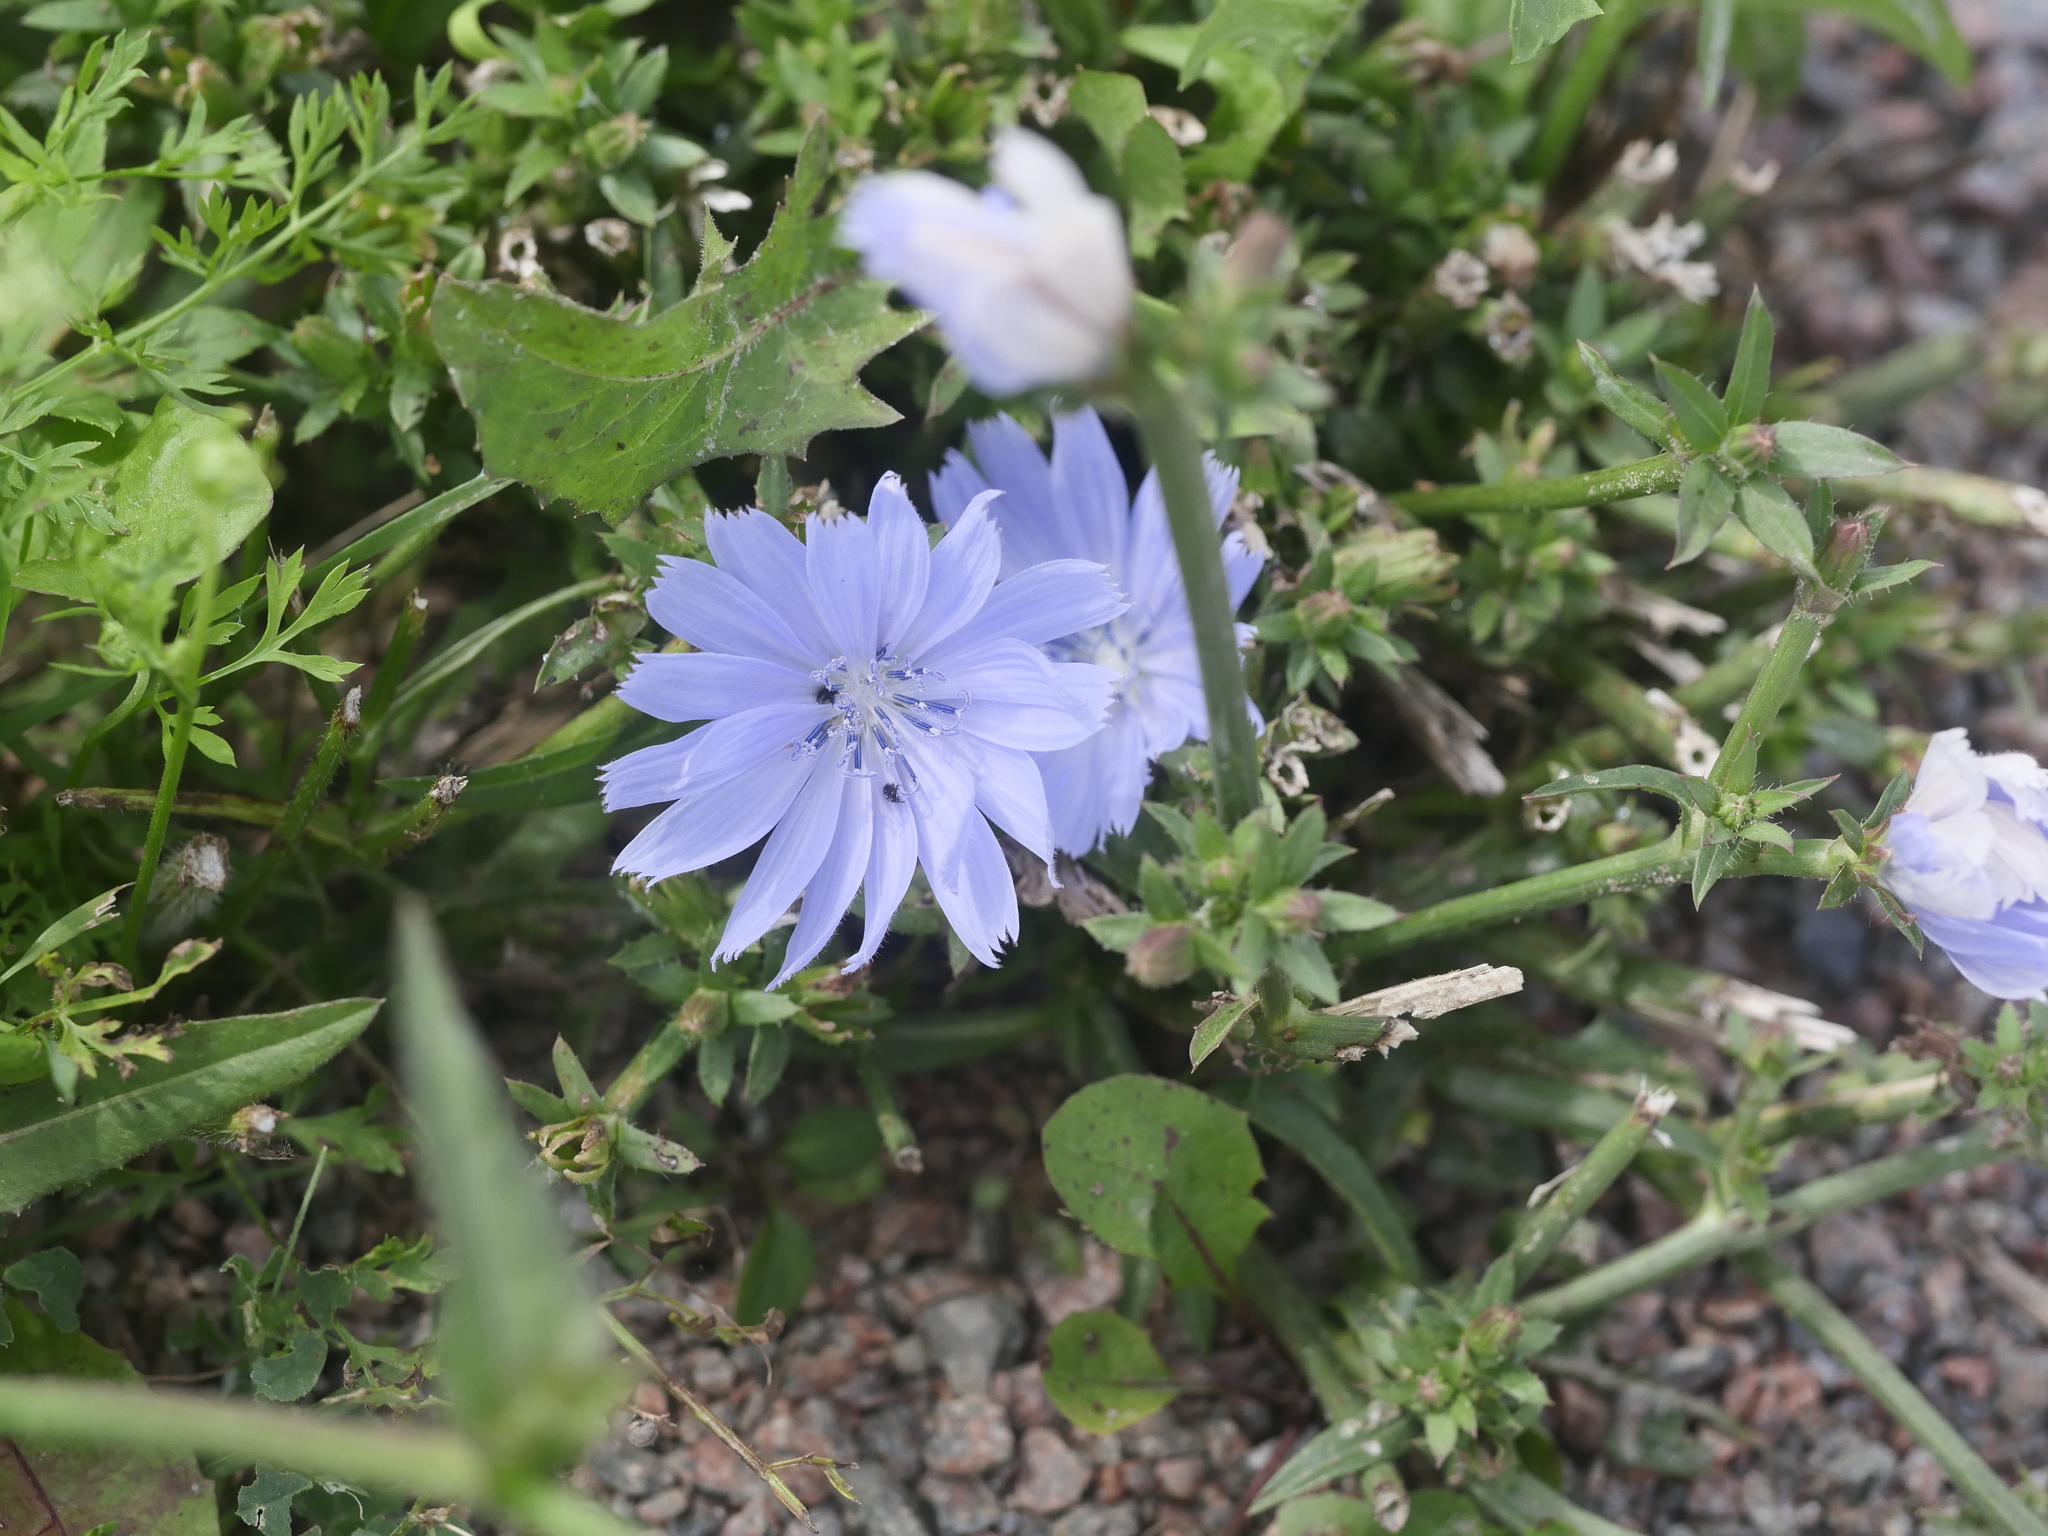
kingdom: Plantae
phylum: Tracheophyta
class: Magnoliopsida
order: Asterales
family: Asteraceae
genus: Cichorium
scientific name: Cichorium intybus
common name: Chicory
